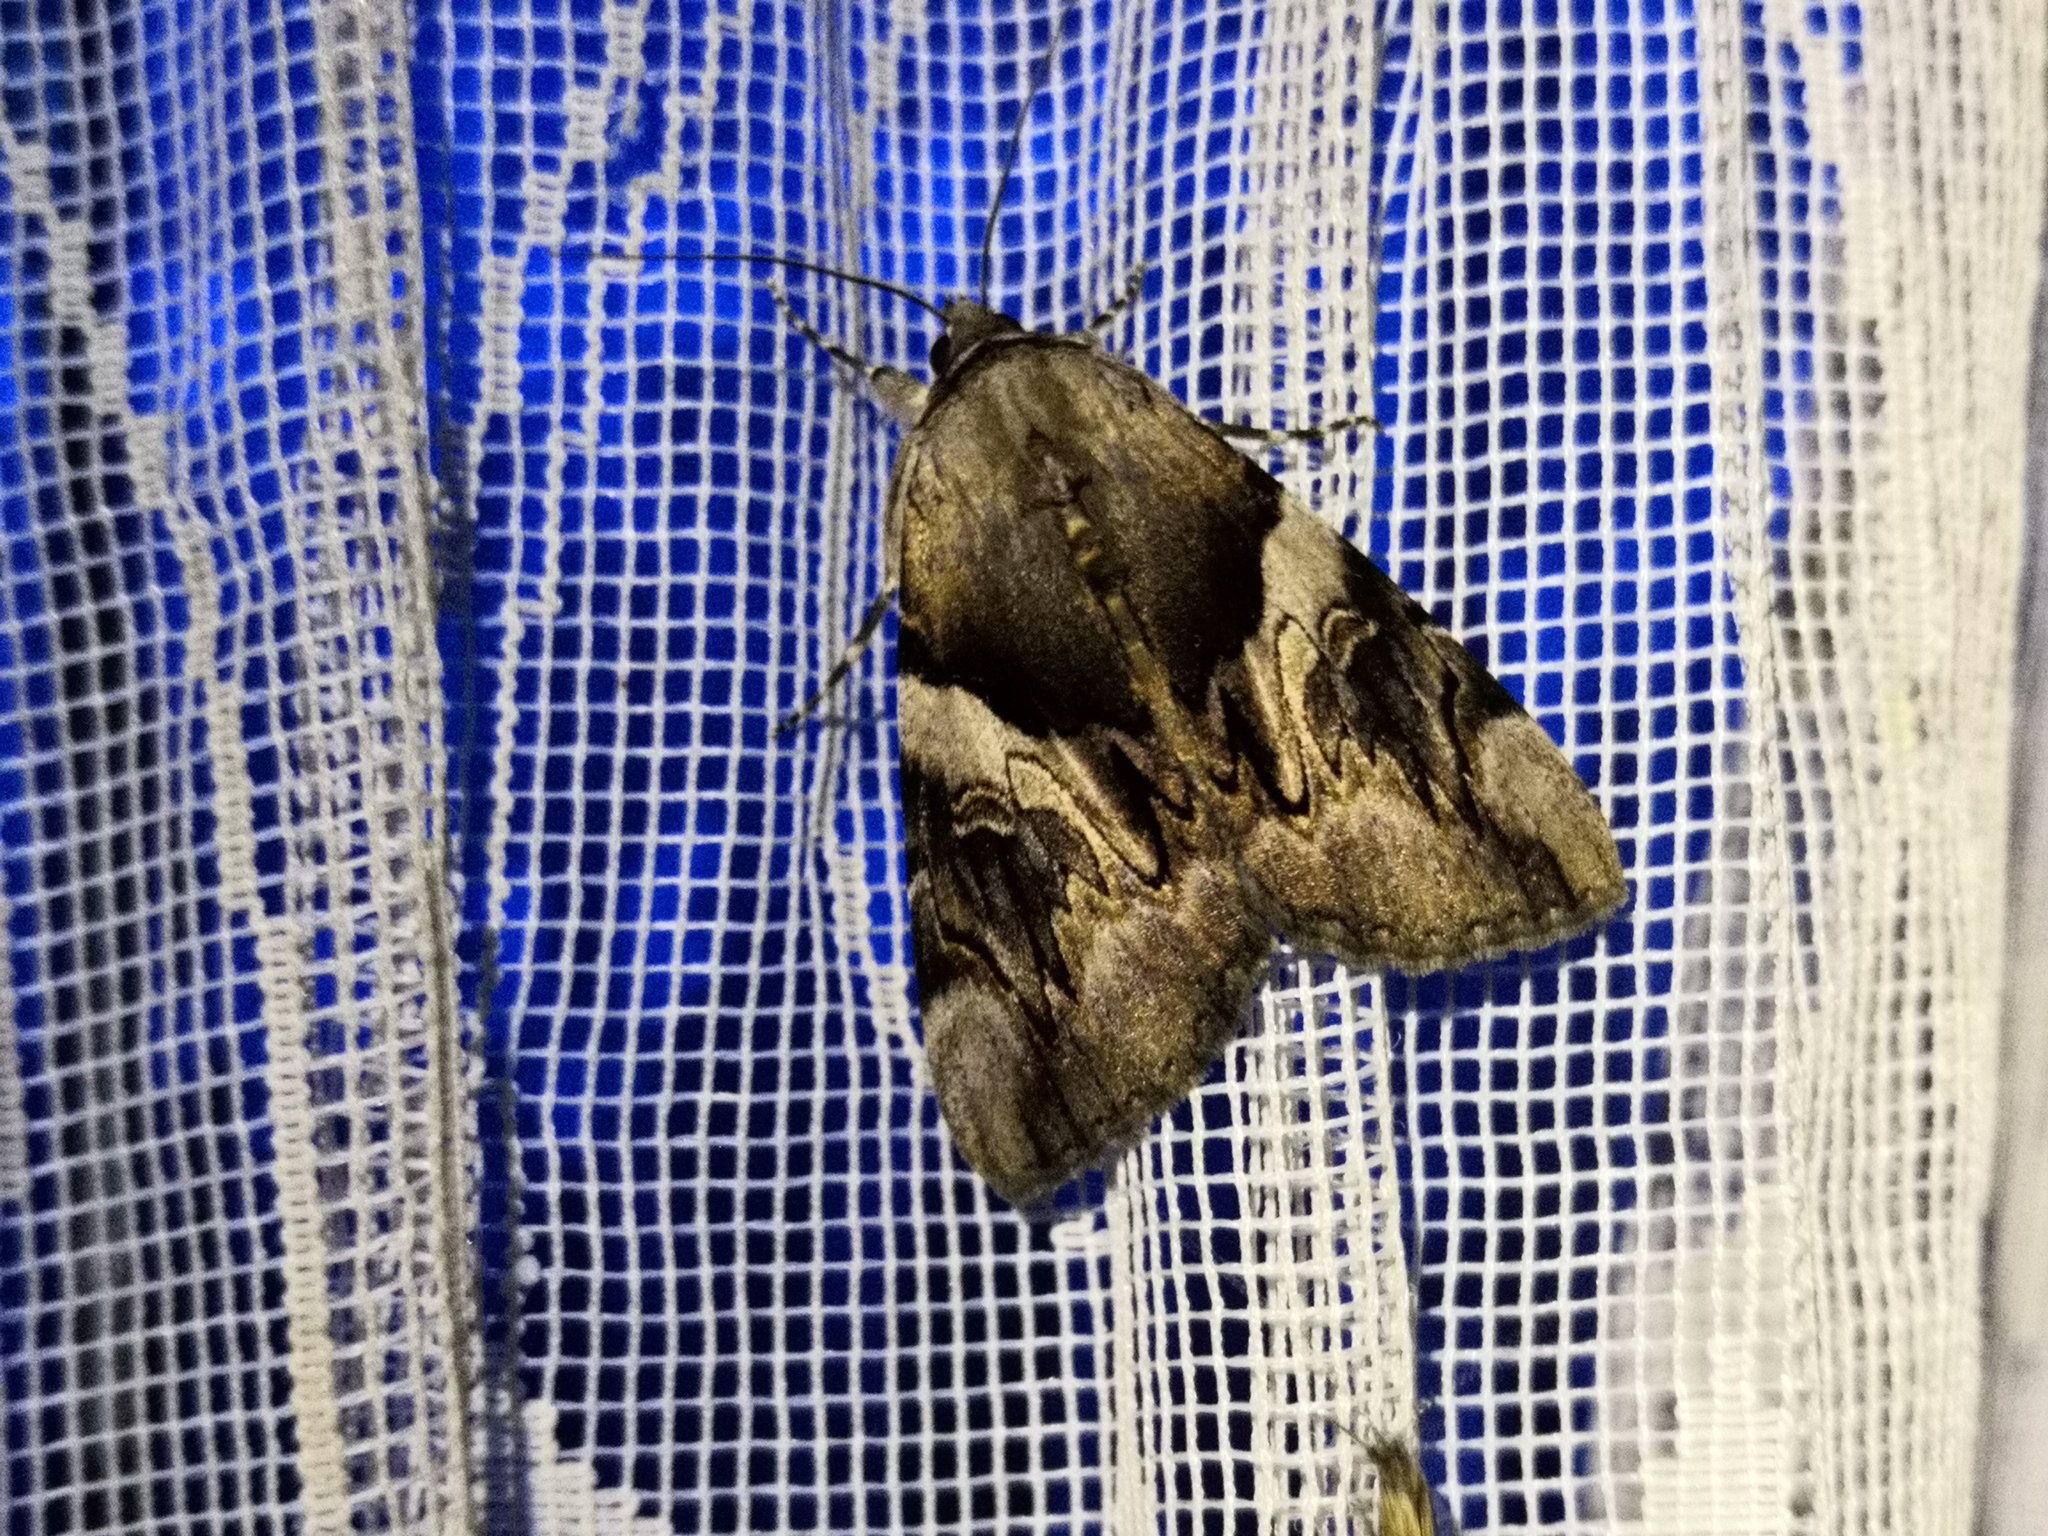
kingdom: Animalia
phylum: Arthropoda
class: Insecta
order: Lepidoptera
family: Erebidae
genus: Catocala
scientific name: Catocala fulminea
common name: Yellow bands underwing
